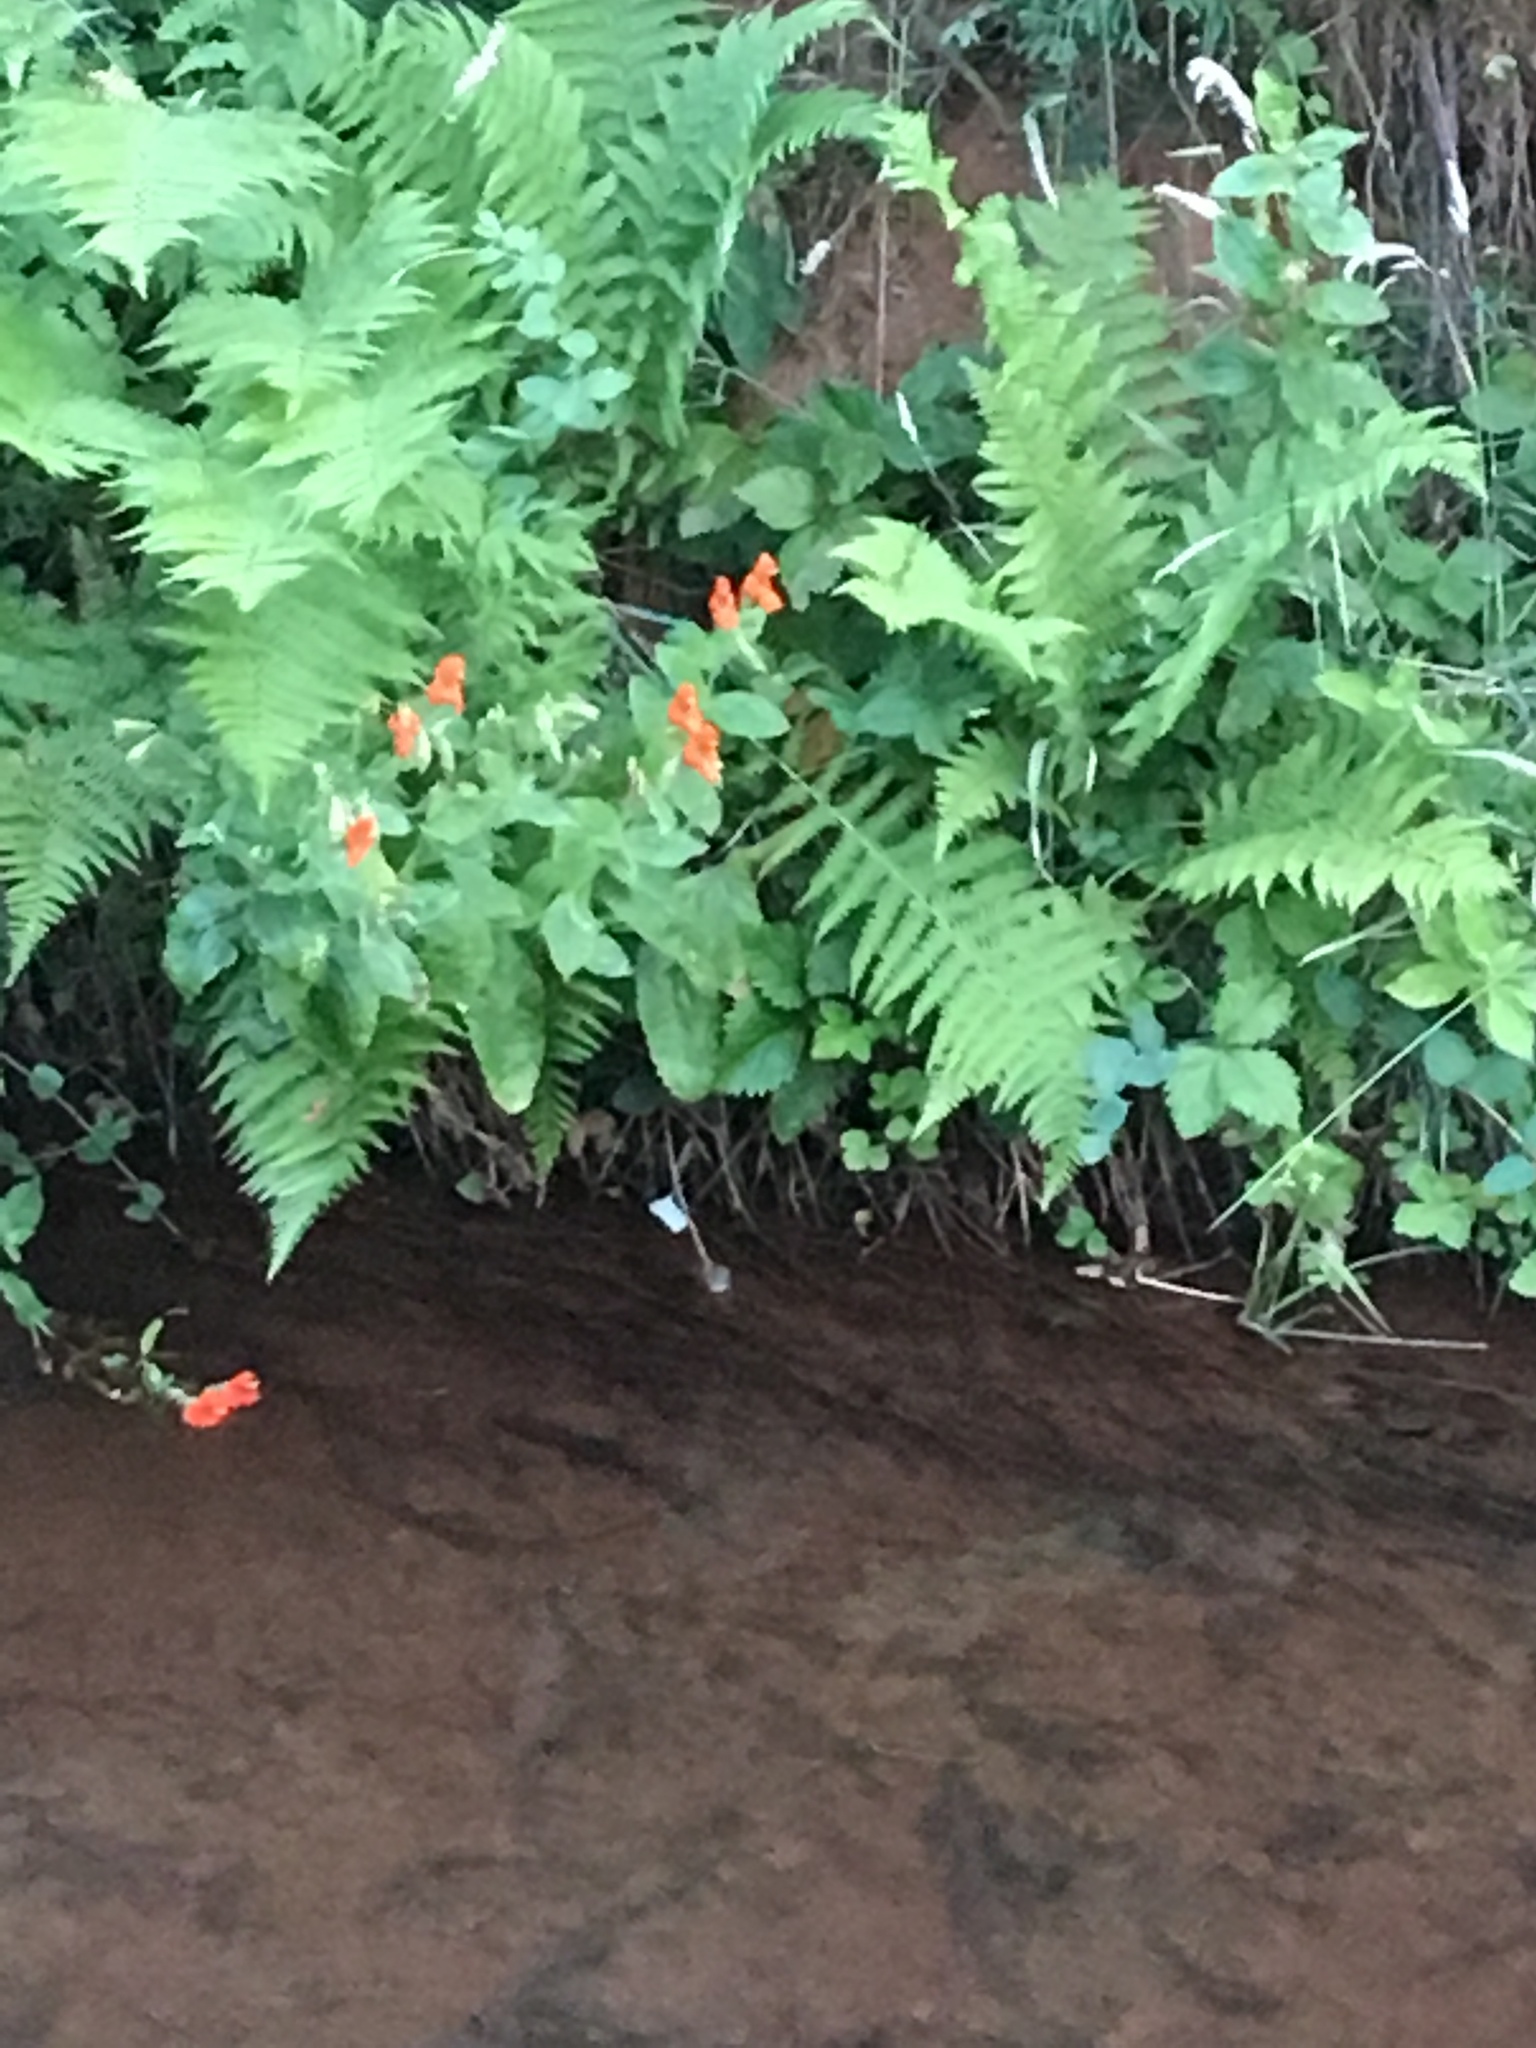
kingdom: Plantae
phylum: Tracheophyta
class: Magnoliopsida
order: Lamiales
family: Phrymaceae
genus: Erythranthe
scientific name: Erythranthe cardinalis
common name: Scarlet monkey-flower
